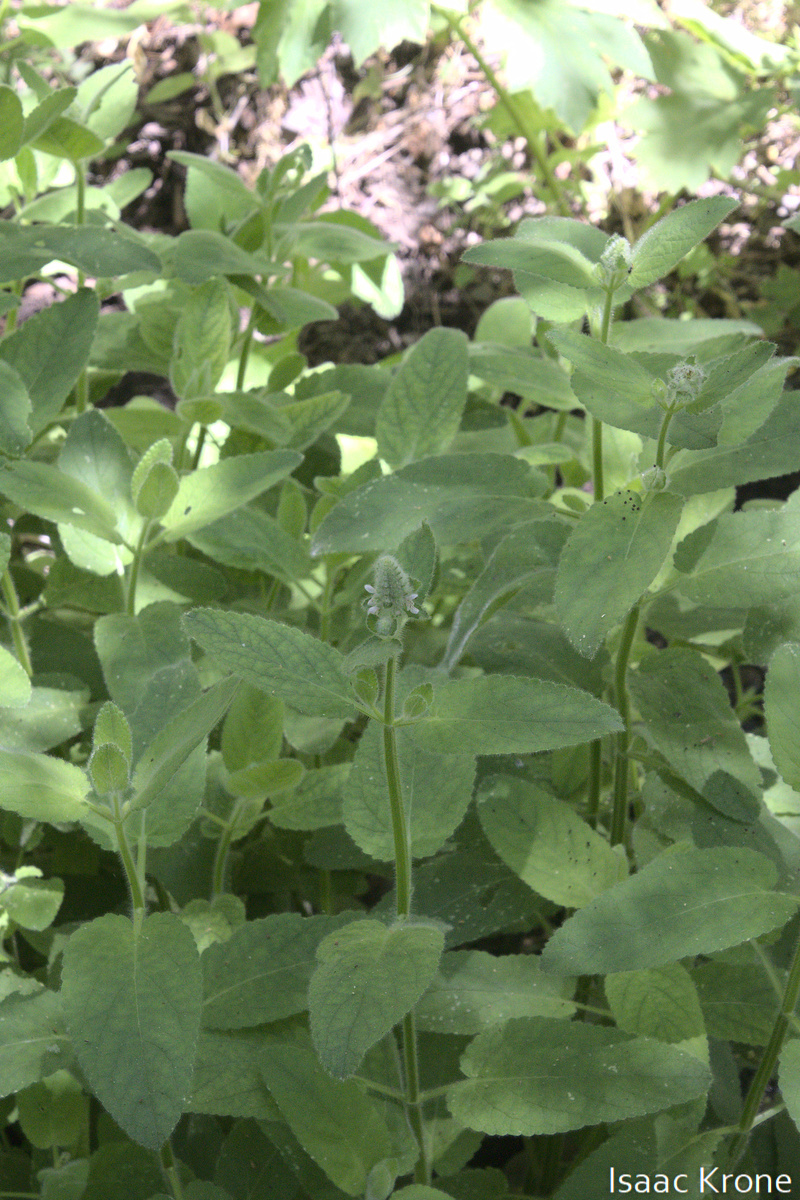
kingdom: Plantae
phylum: Tracheophyta
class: Magnoliopsida
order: Lamiales
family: Lamiaceae
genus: Stachys
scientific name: Stachys pycnantha
